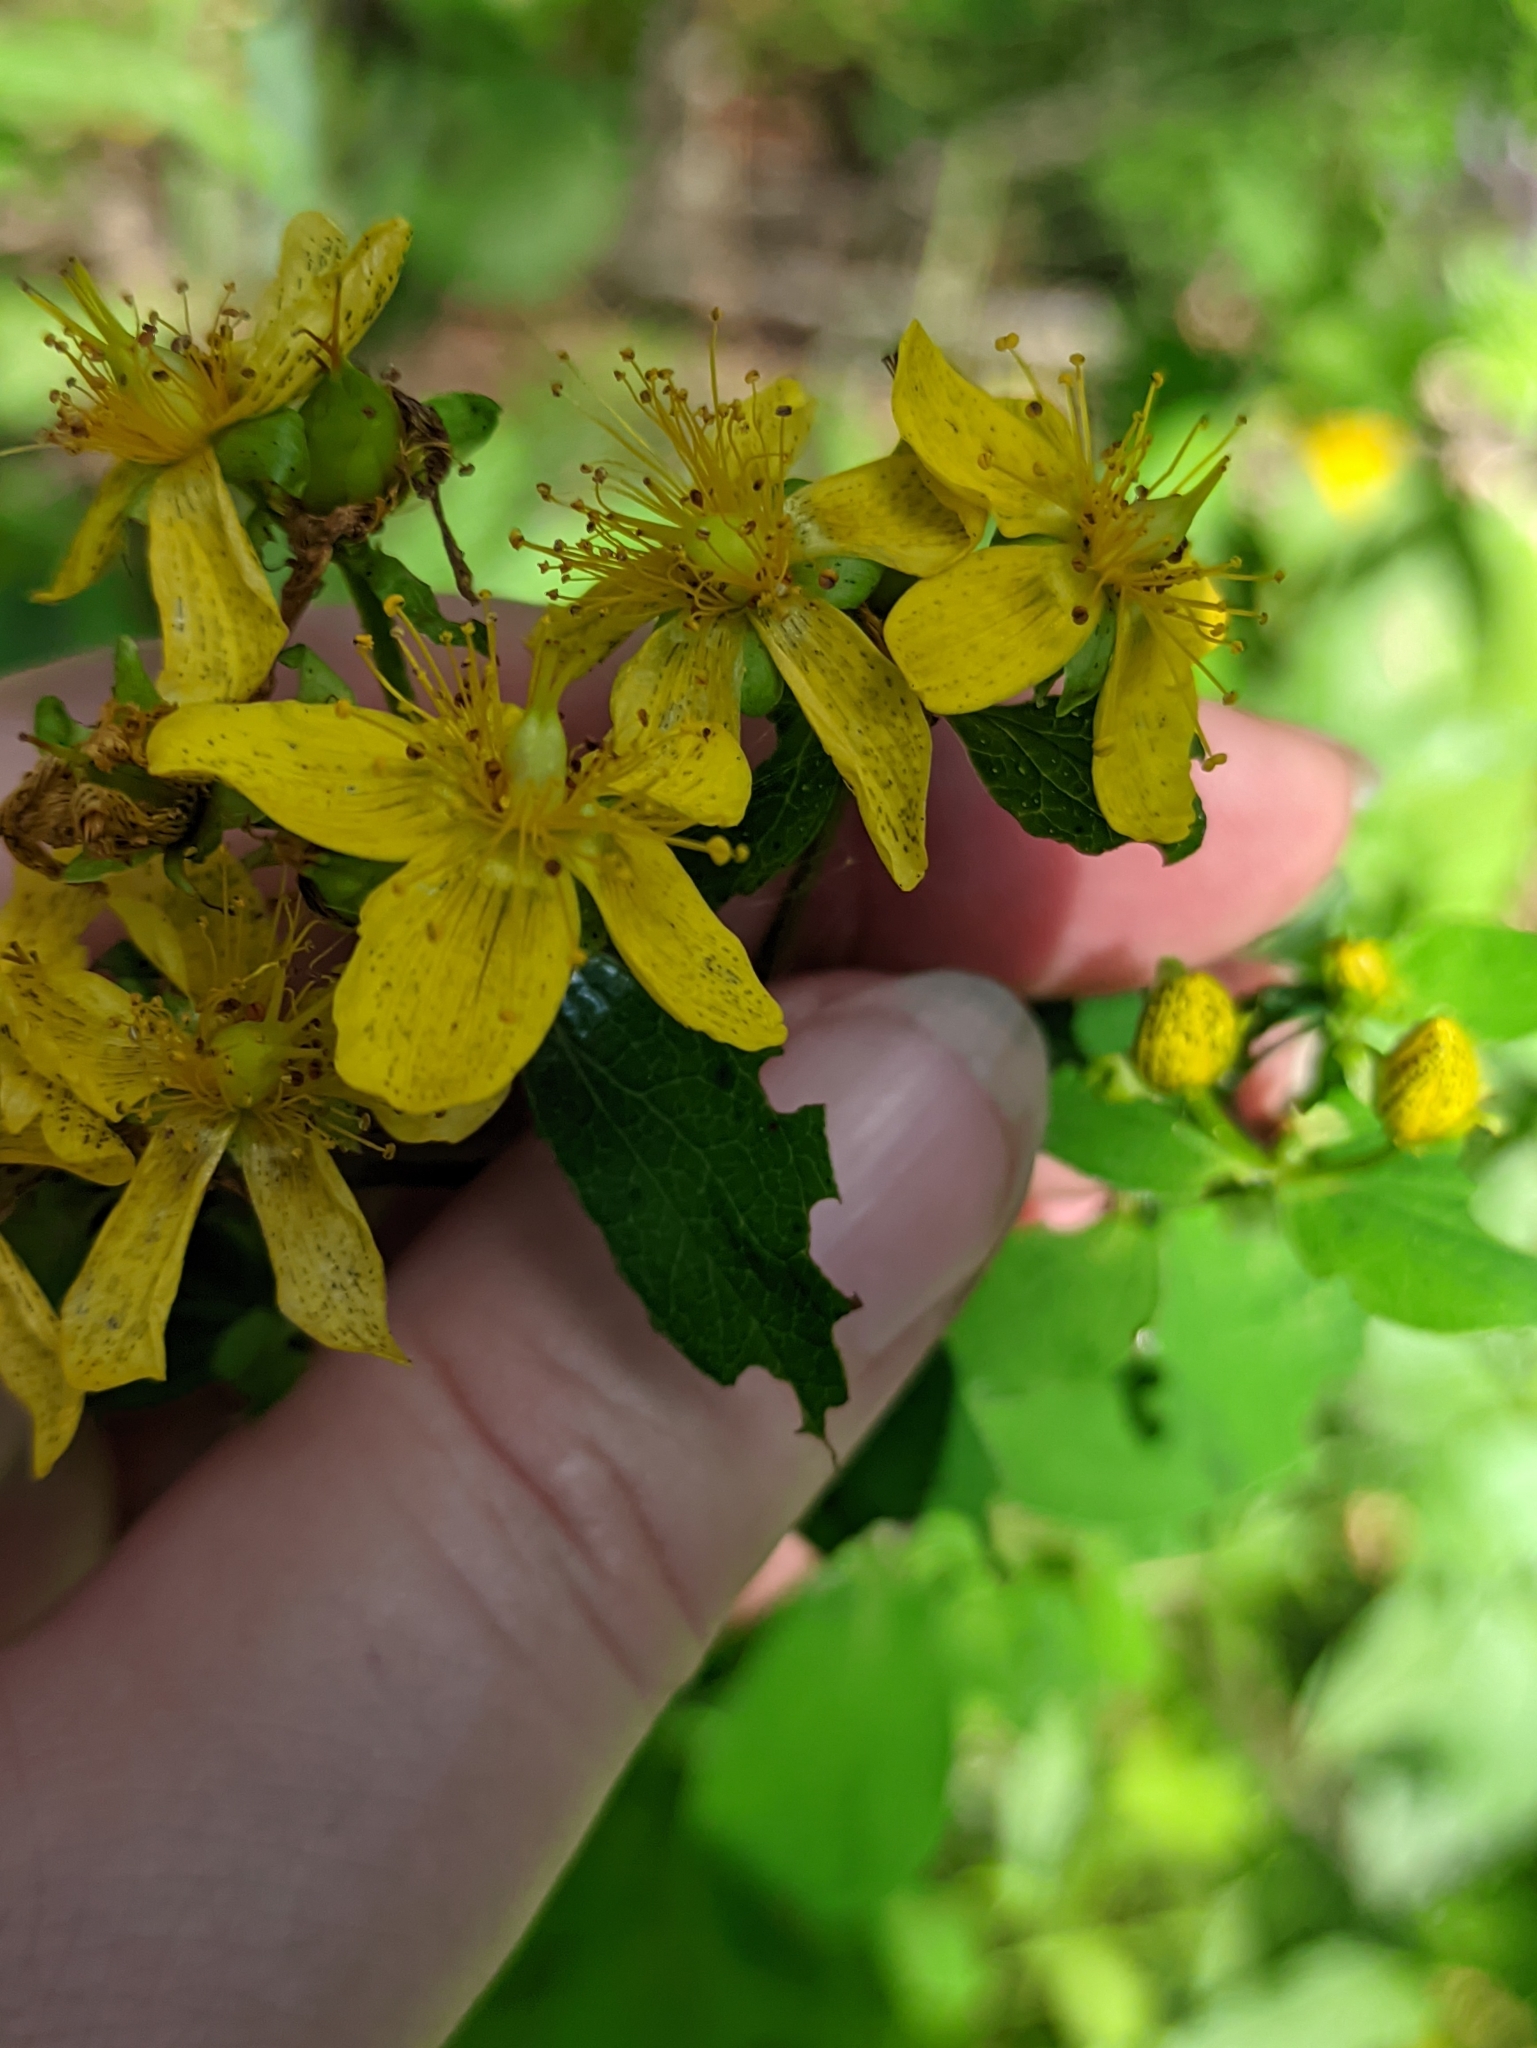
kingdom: Plantae
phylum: Tracheophyta
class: Magnoliopsida
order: Malpighiales
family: Hypericaceae
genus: Hypericum
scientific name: Hypericum maculatum
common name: Imperforate st. john's-wort
